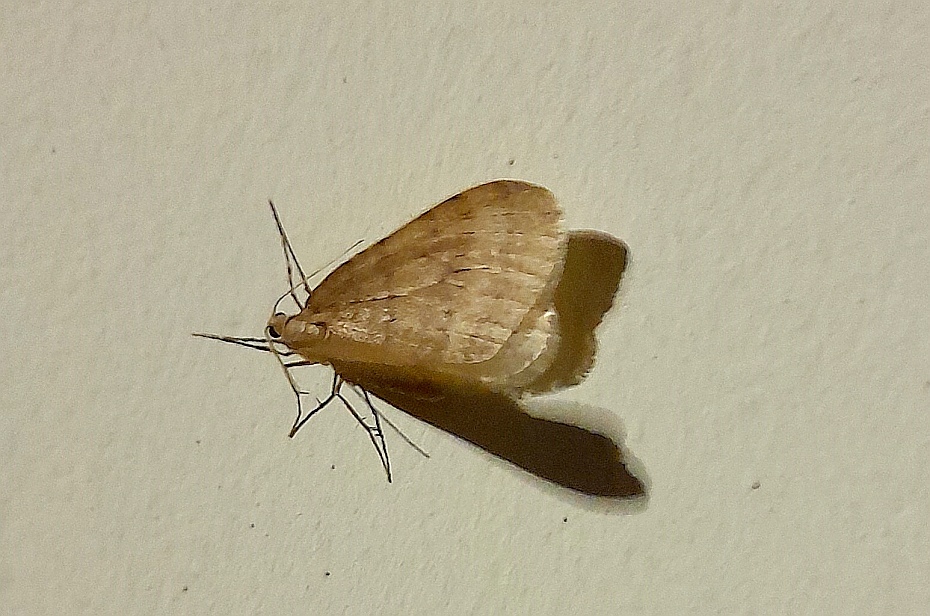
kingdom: Animalia
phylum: Arthropoda
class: Insecta
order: Lepidoptera
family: Geometridae
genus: Operophtera
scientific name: Operophtera brumata
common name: Winter moth
